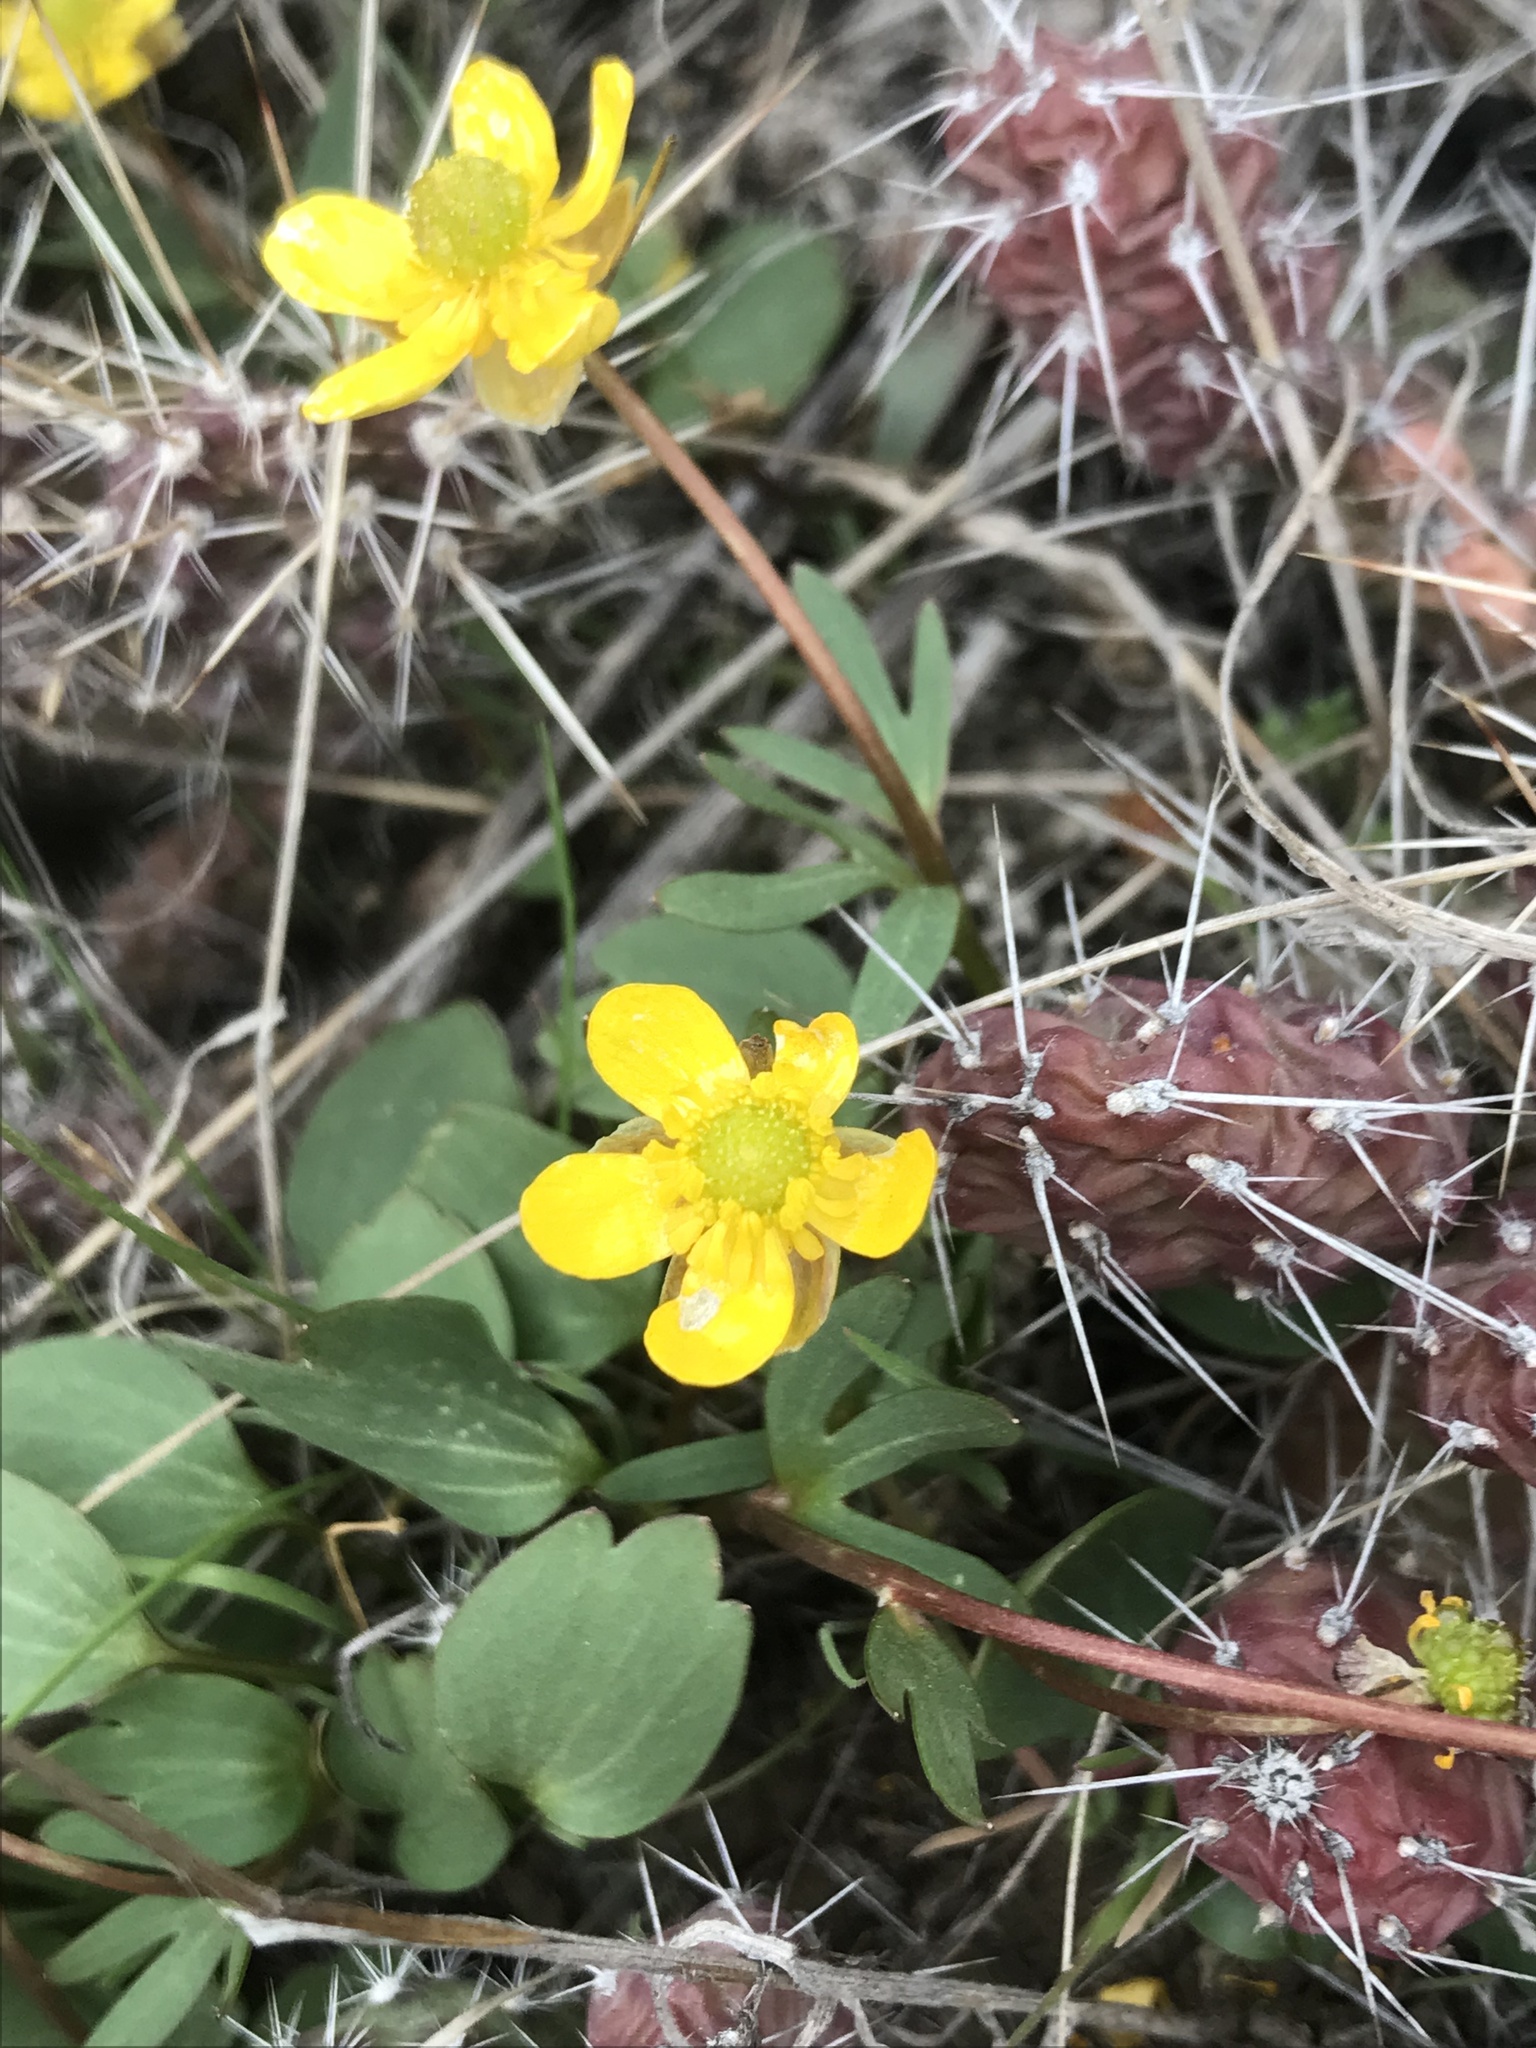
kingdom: Plantae
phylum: Tracheophyta
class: Magnoliopsida
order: Ranunculales
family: Ranunculaceae
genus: Ranunculus
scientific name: Ranunculus glaberrimus
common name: Sagebrush buttercup
